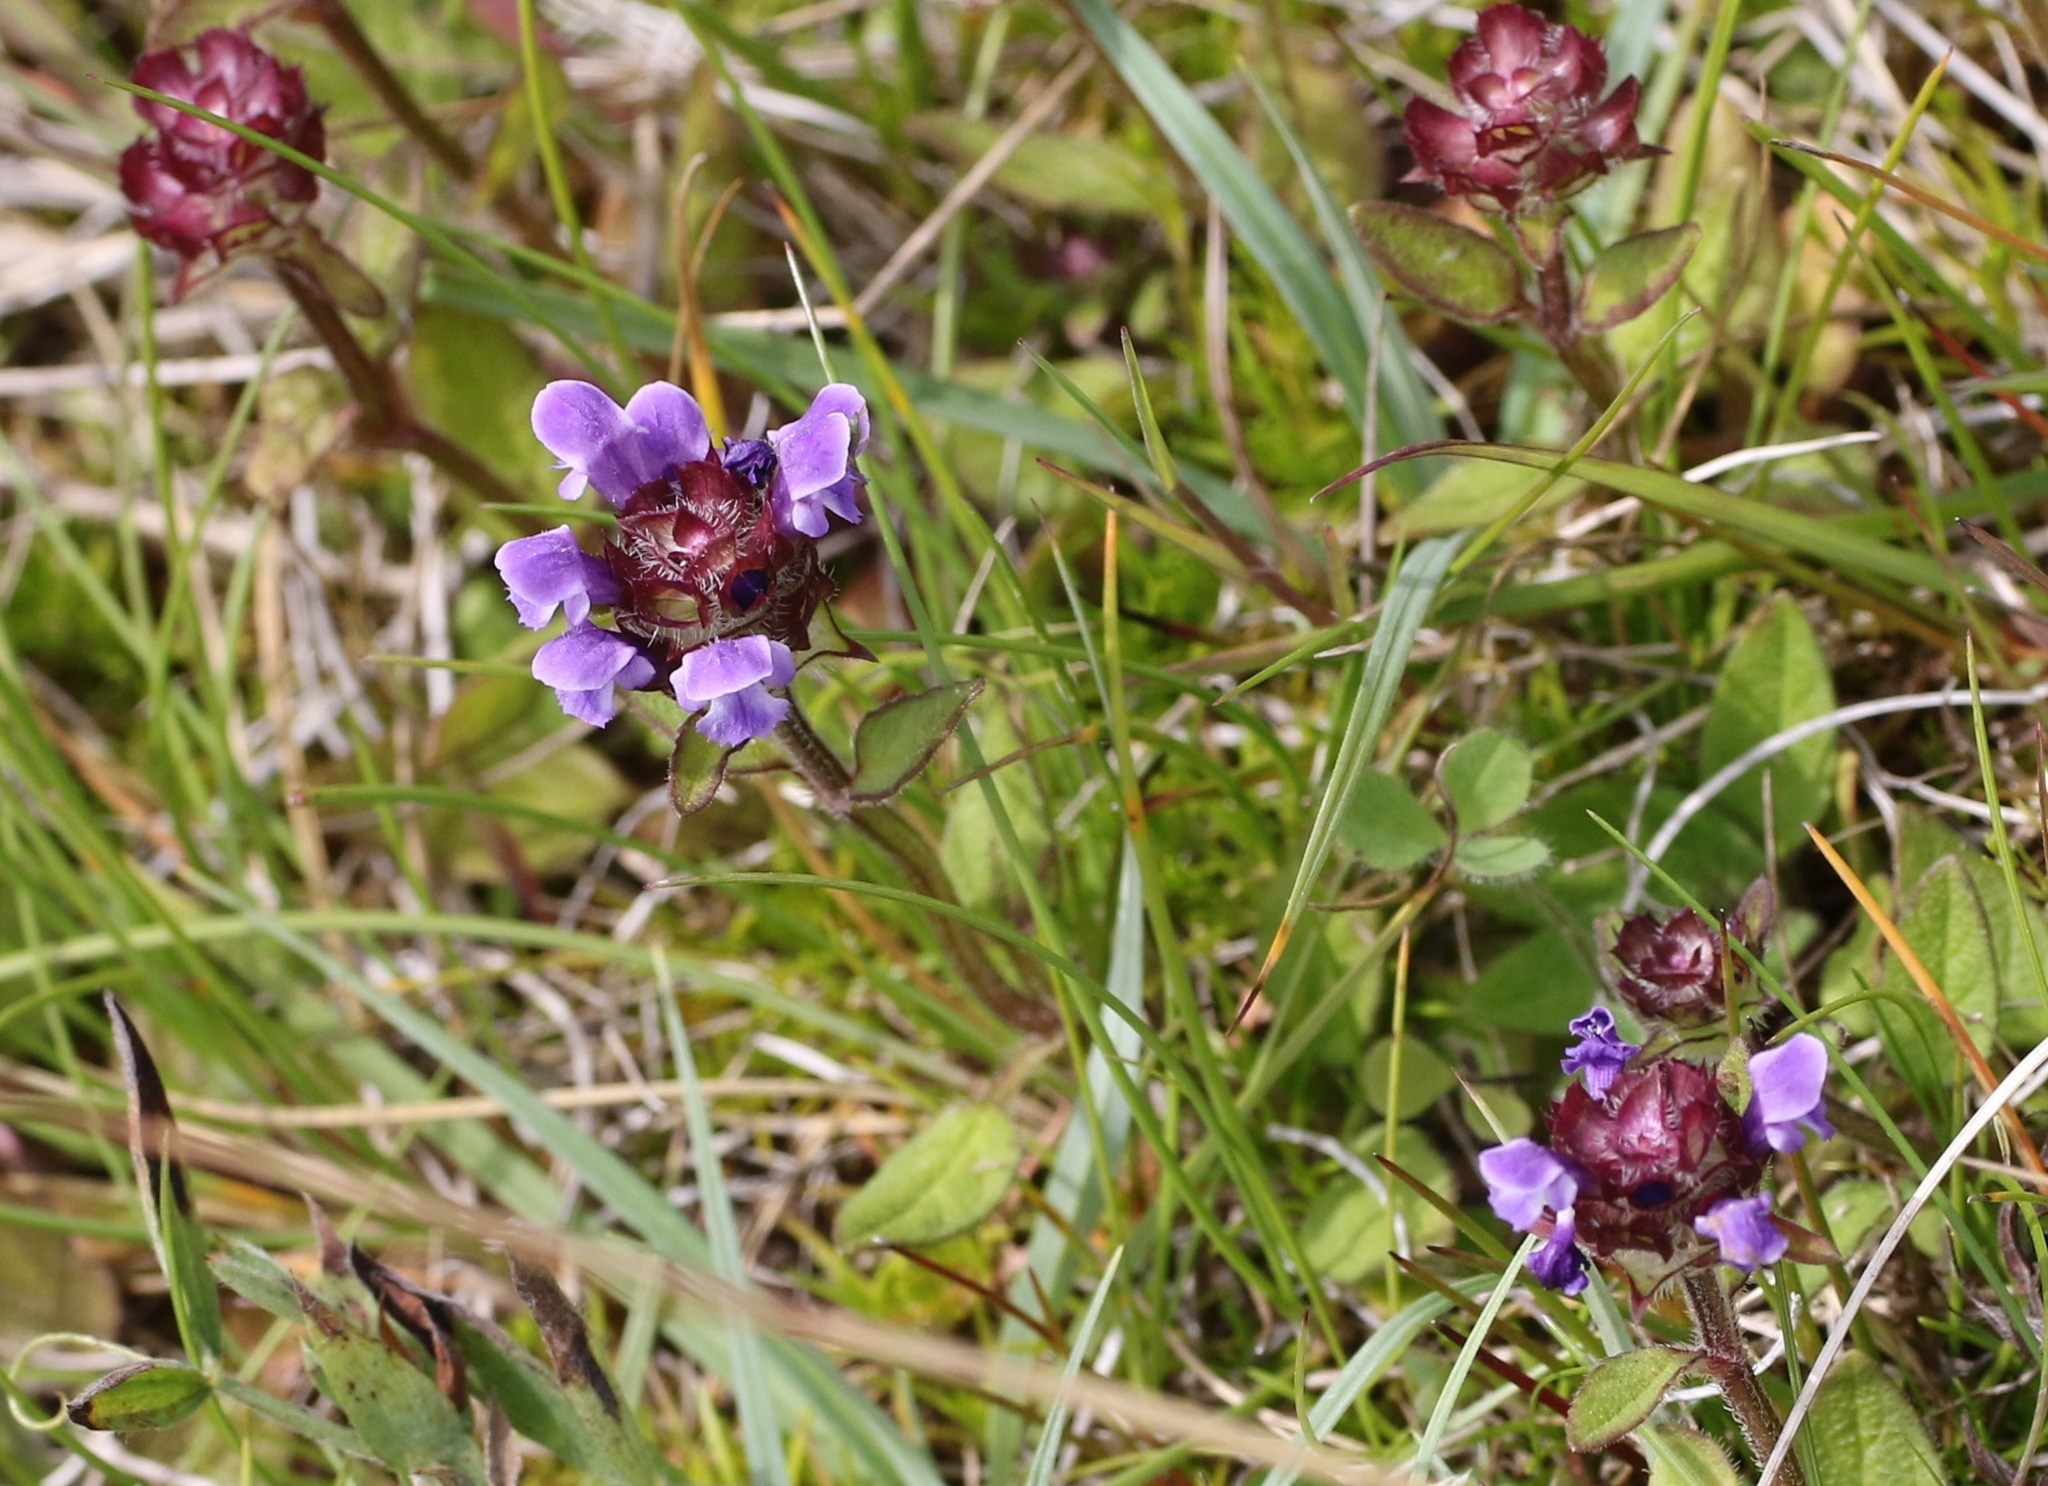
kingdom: Plantae
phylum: Tracheophyta
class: Magnoliopsida
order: Lamiales
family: Lamiaceae
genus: Prunella
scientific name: Prunella vulgaris
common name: Heal-all
